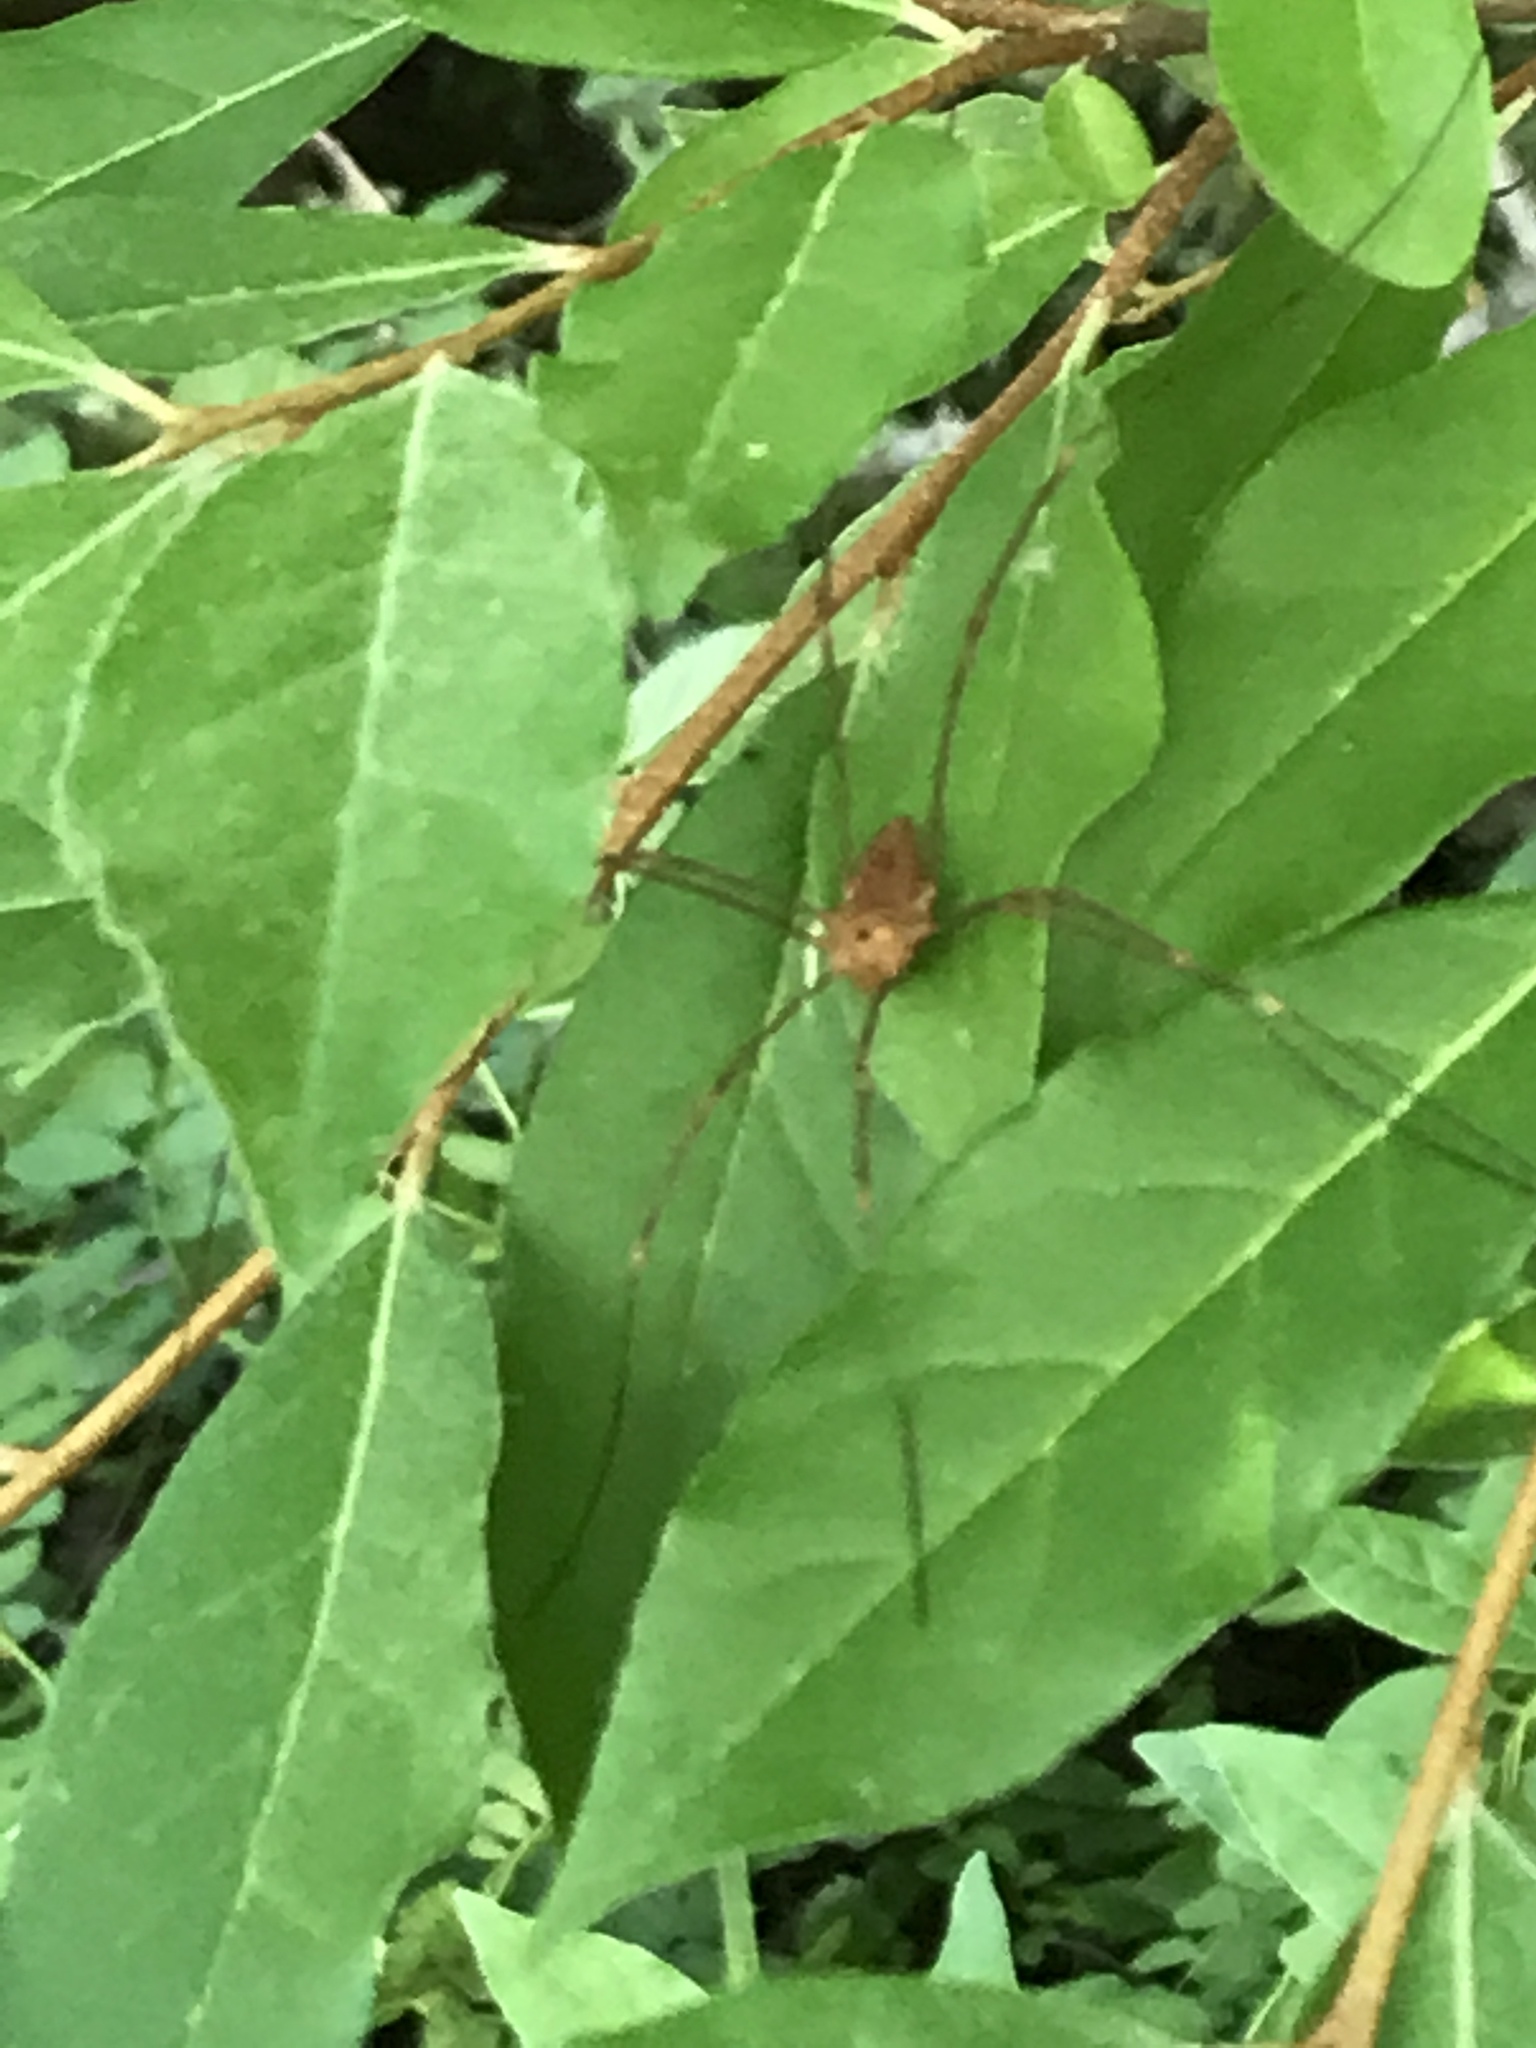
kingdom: Animalia
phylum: Arthropoda
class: Arachnida
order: Opiliones
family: Sclerosomatidae
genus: Leiobunum
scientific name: Leiobunum ventricosum
